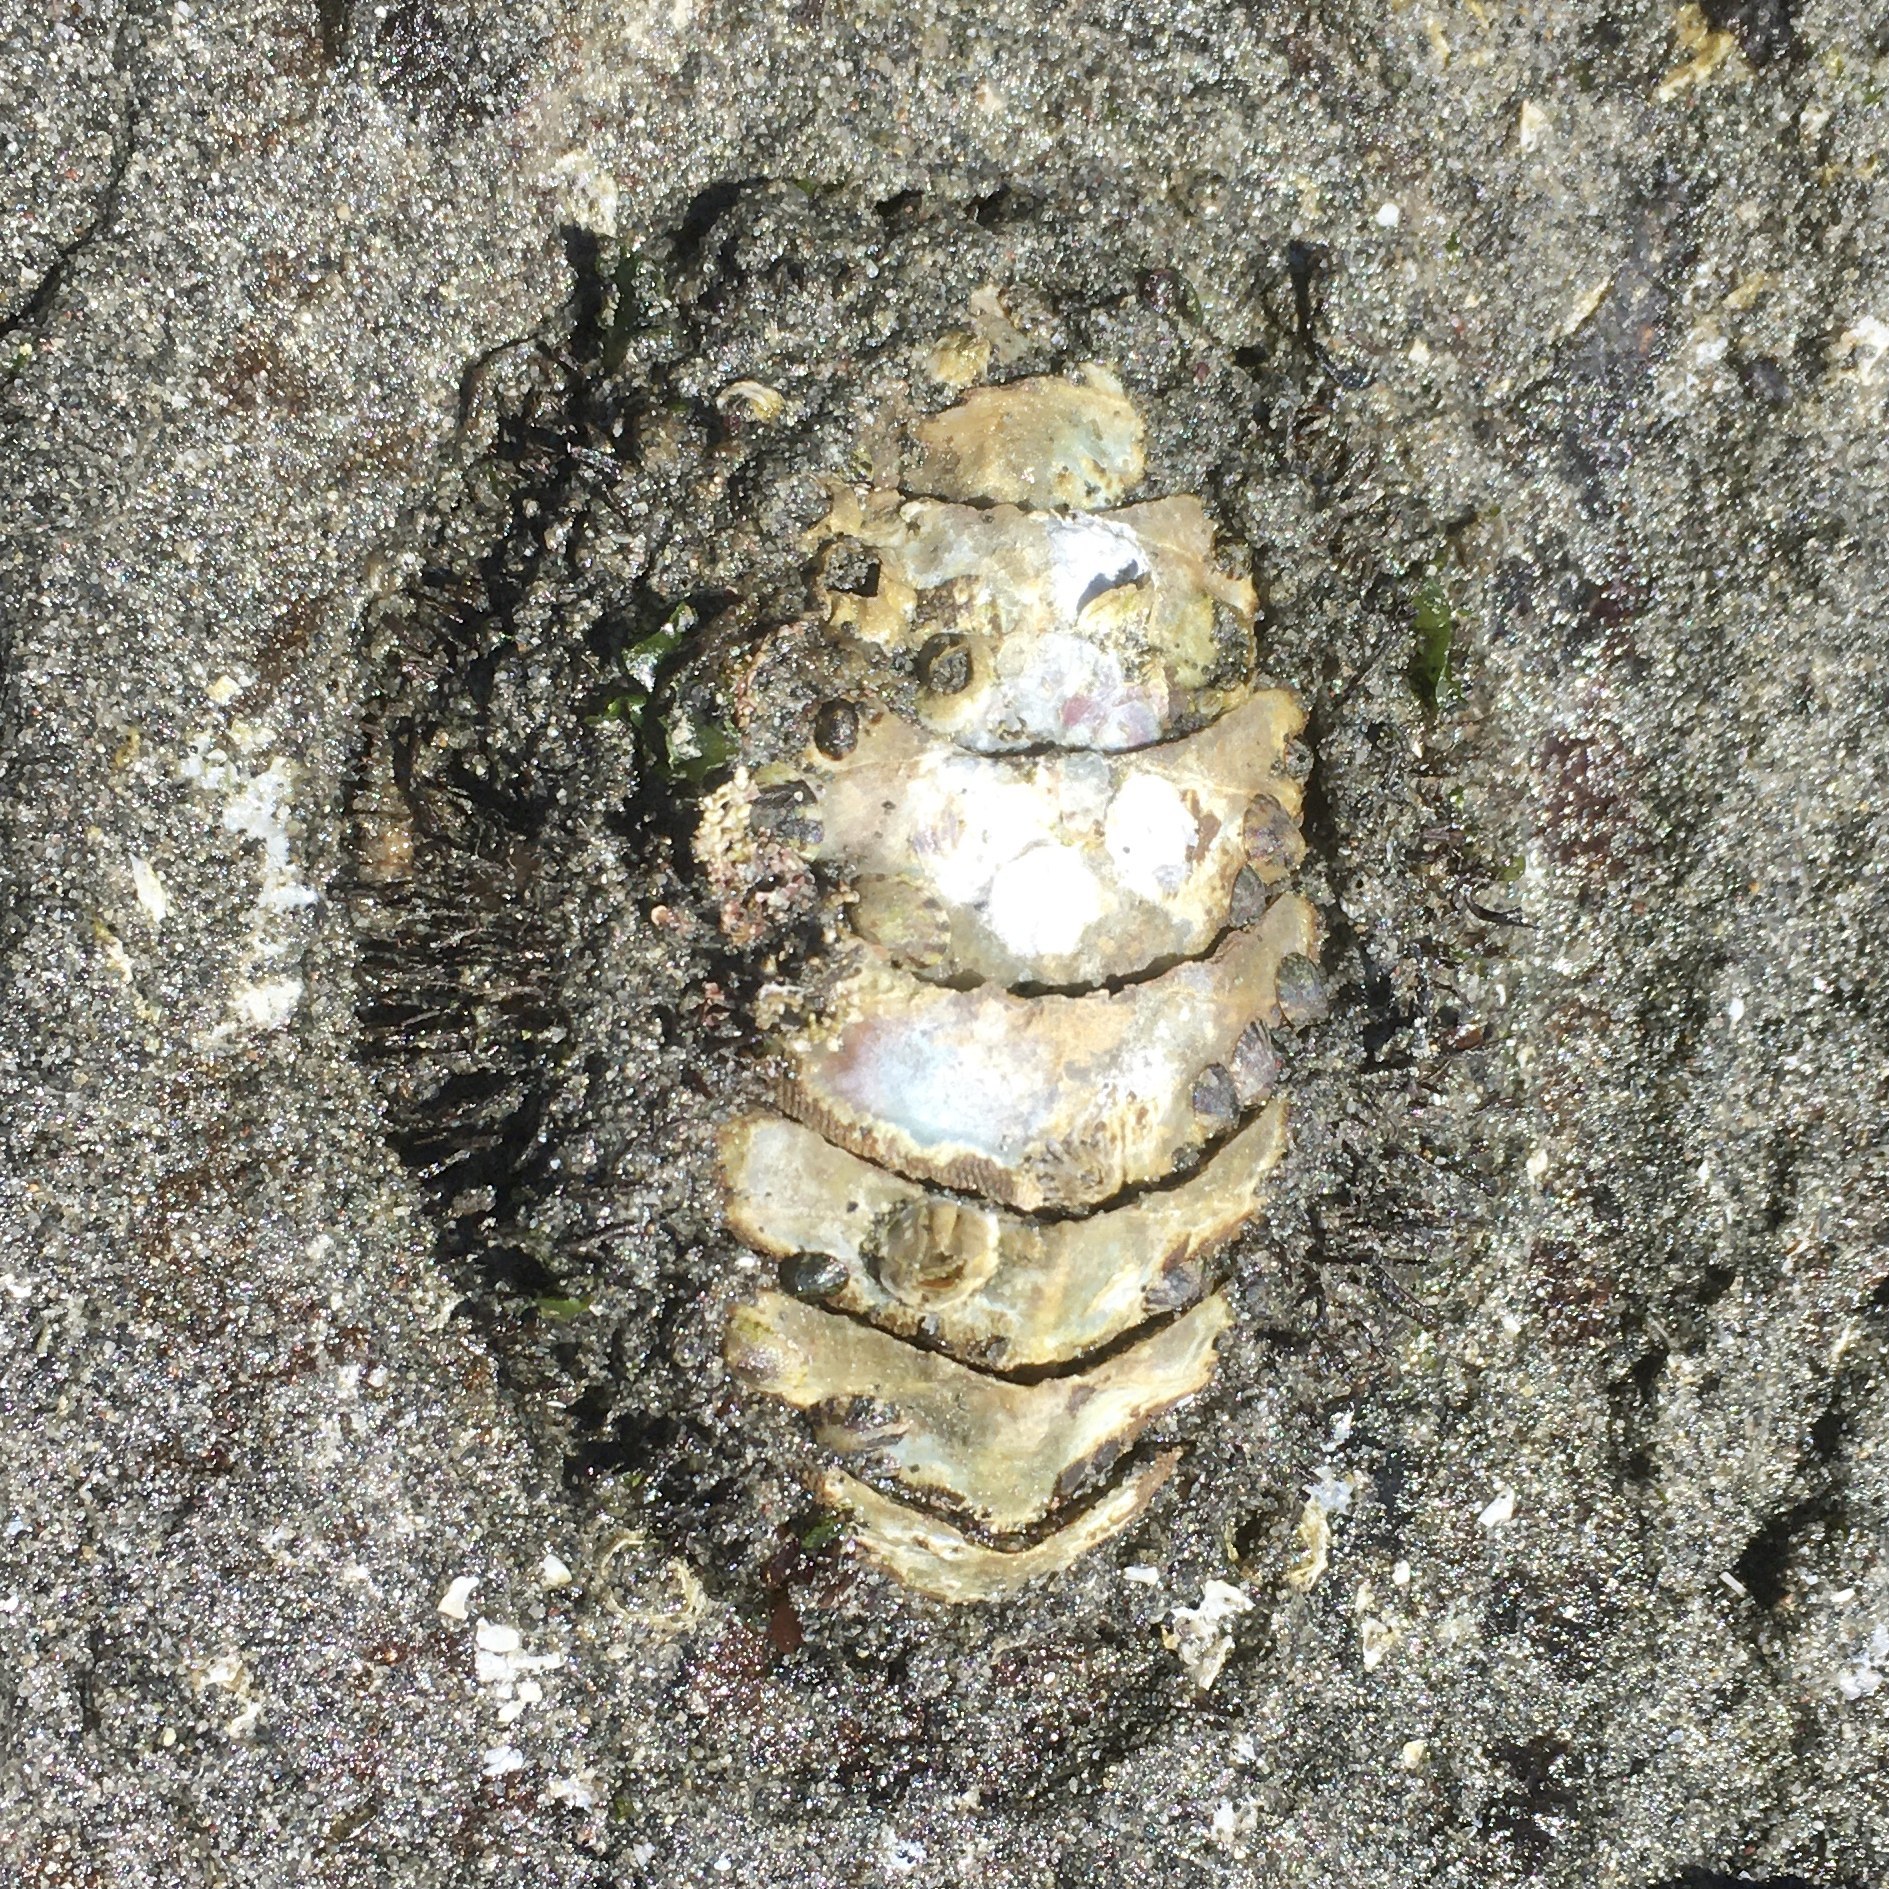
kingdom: Animalia
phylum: Mollusca
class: Polyplacophora
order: Chitonida
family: Mopaliidae
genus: Mopalia
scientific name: Mopalia muscosa
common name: Mossy chiton
